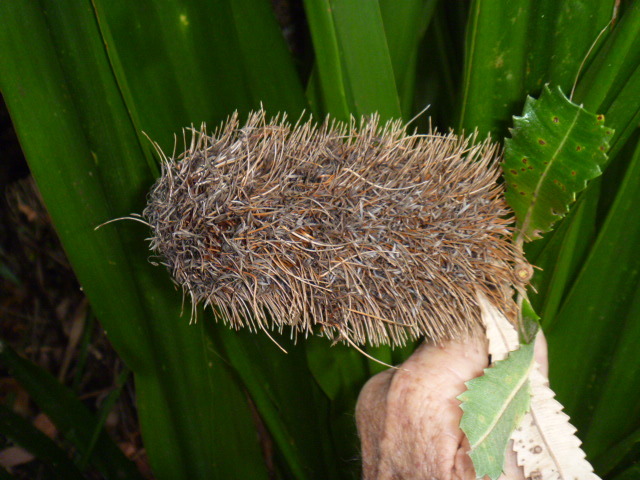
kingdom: Plantae
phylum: Tracheophyta
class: Magnoliopsida
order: Proteales
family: Proteaceae
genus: Banksia
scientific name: Banksia serrata
